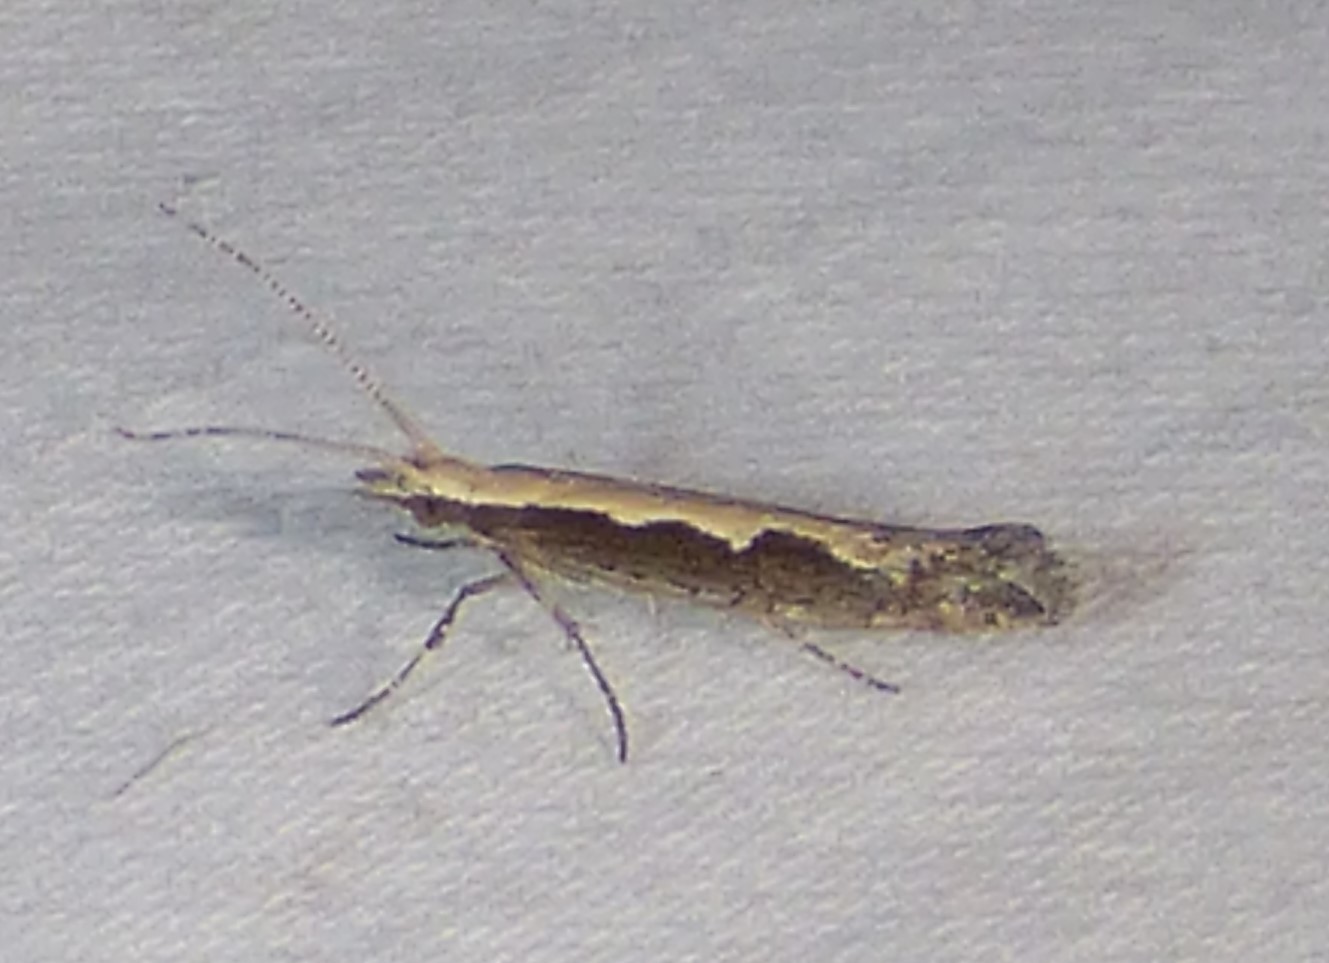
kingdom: Animalia
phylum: Arthropoda
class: Insecta
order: Lepidoptera
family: Plutellidae
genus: Plutella
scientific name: Plutella xylostella
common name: Diamond-back moth
